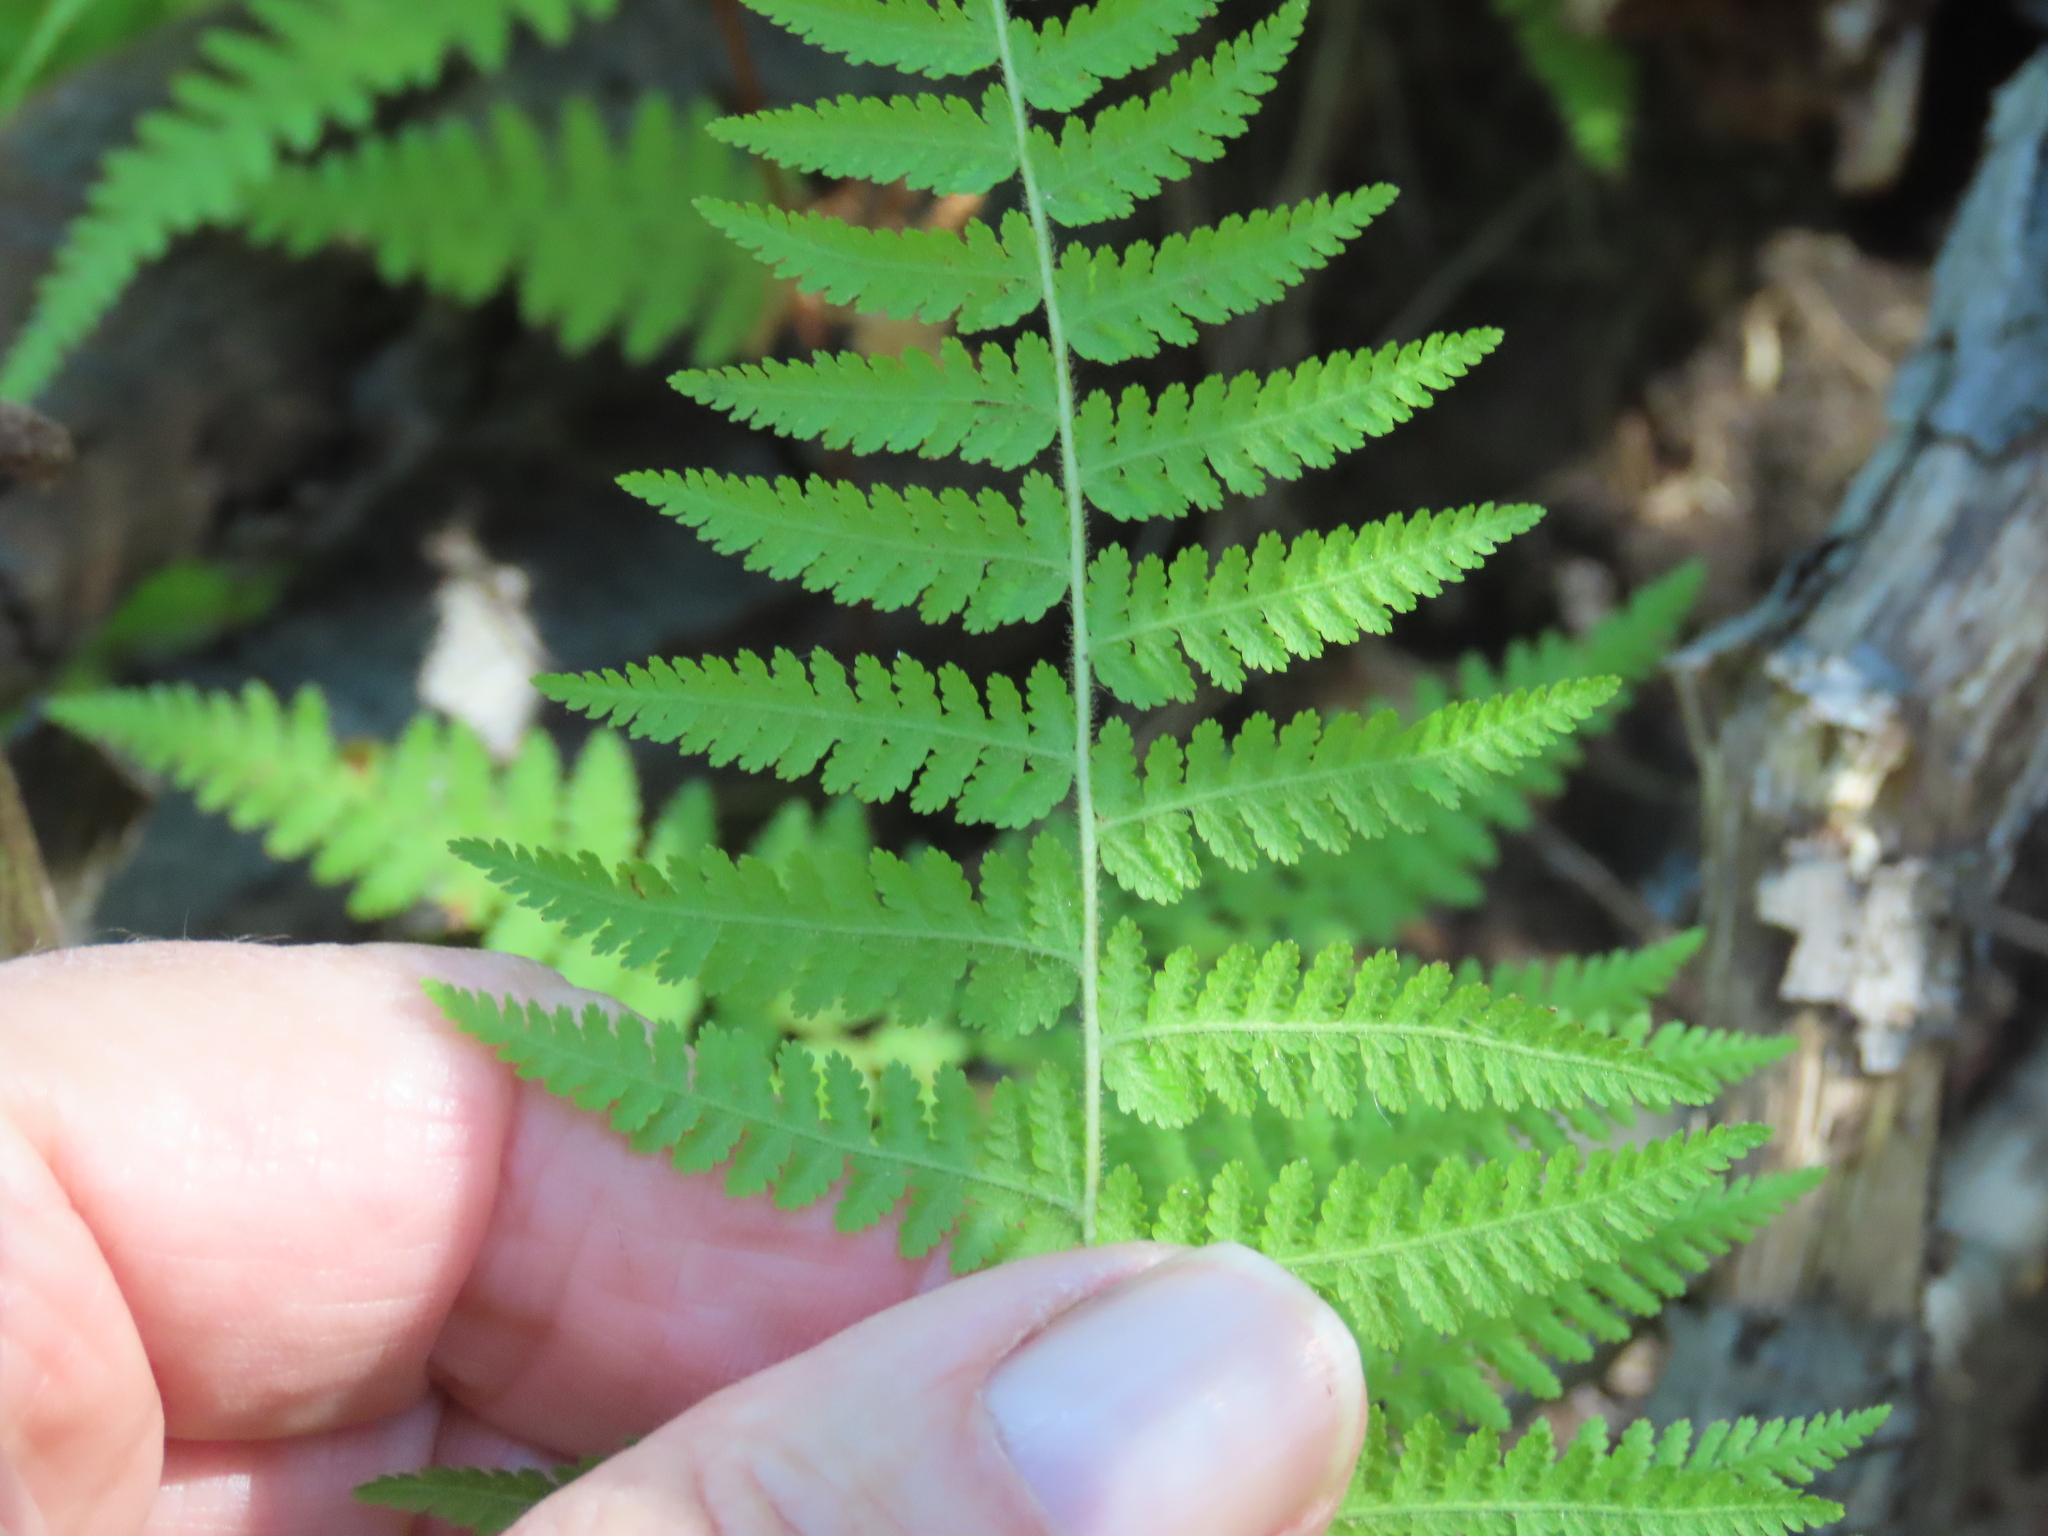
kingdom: Plantae
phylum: Tracheophyta
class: Polypodiopsida
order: Polypodiales
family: Dennstaedtiaceae
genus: Sitobolium
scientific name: Sitobolium punctilobum
